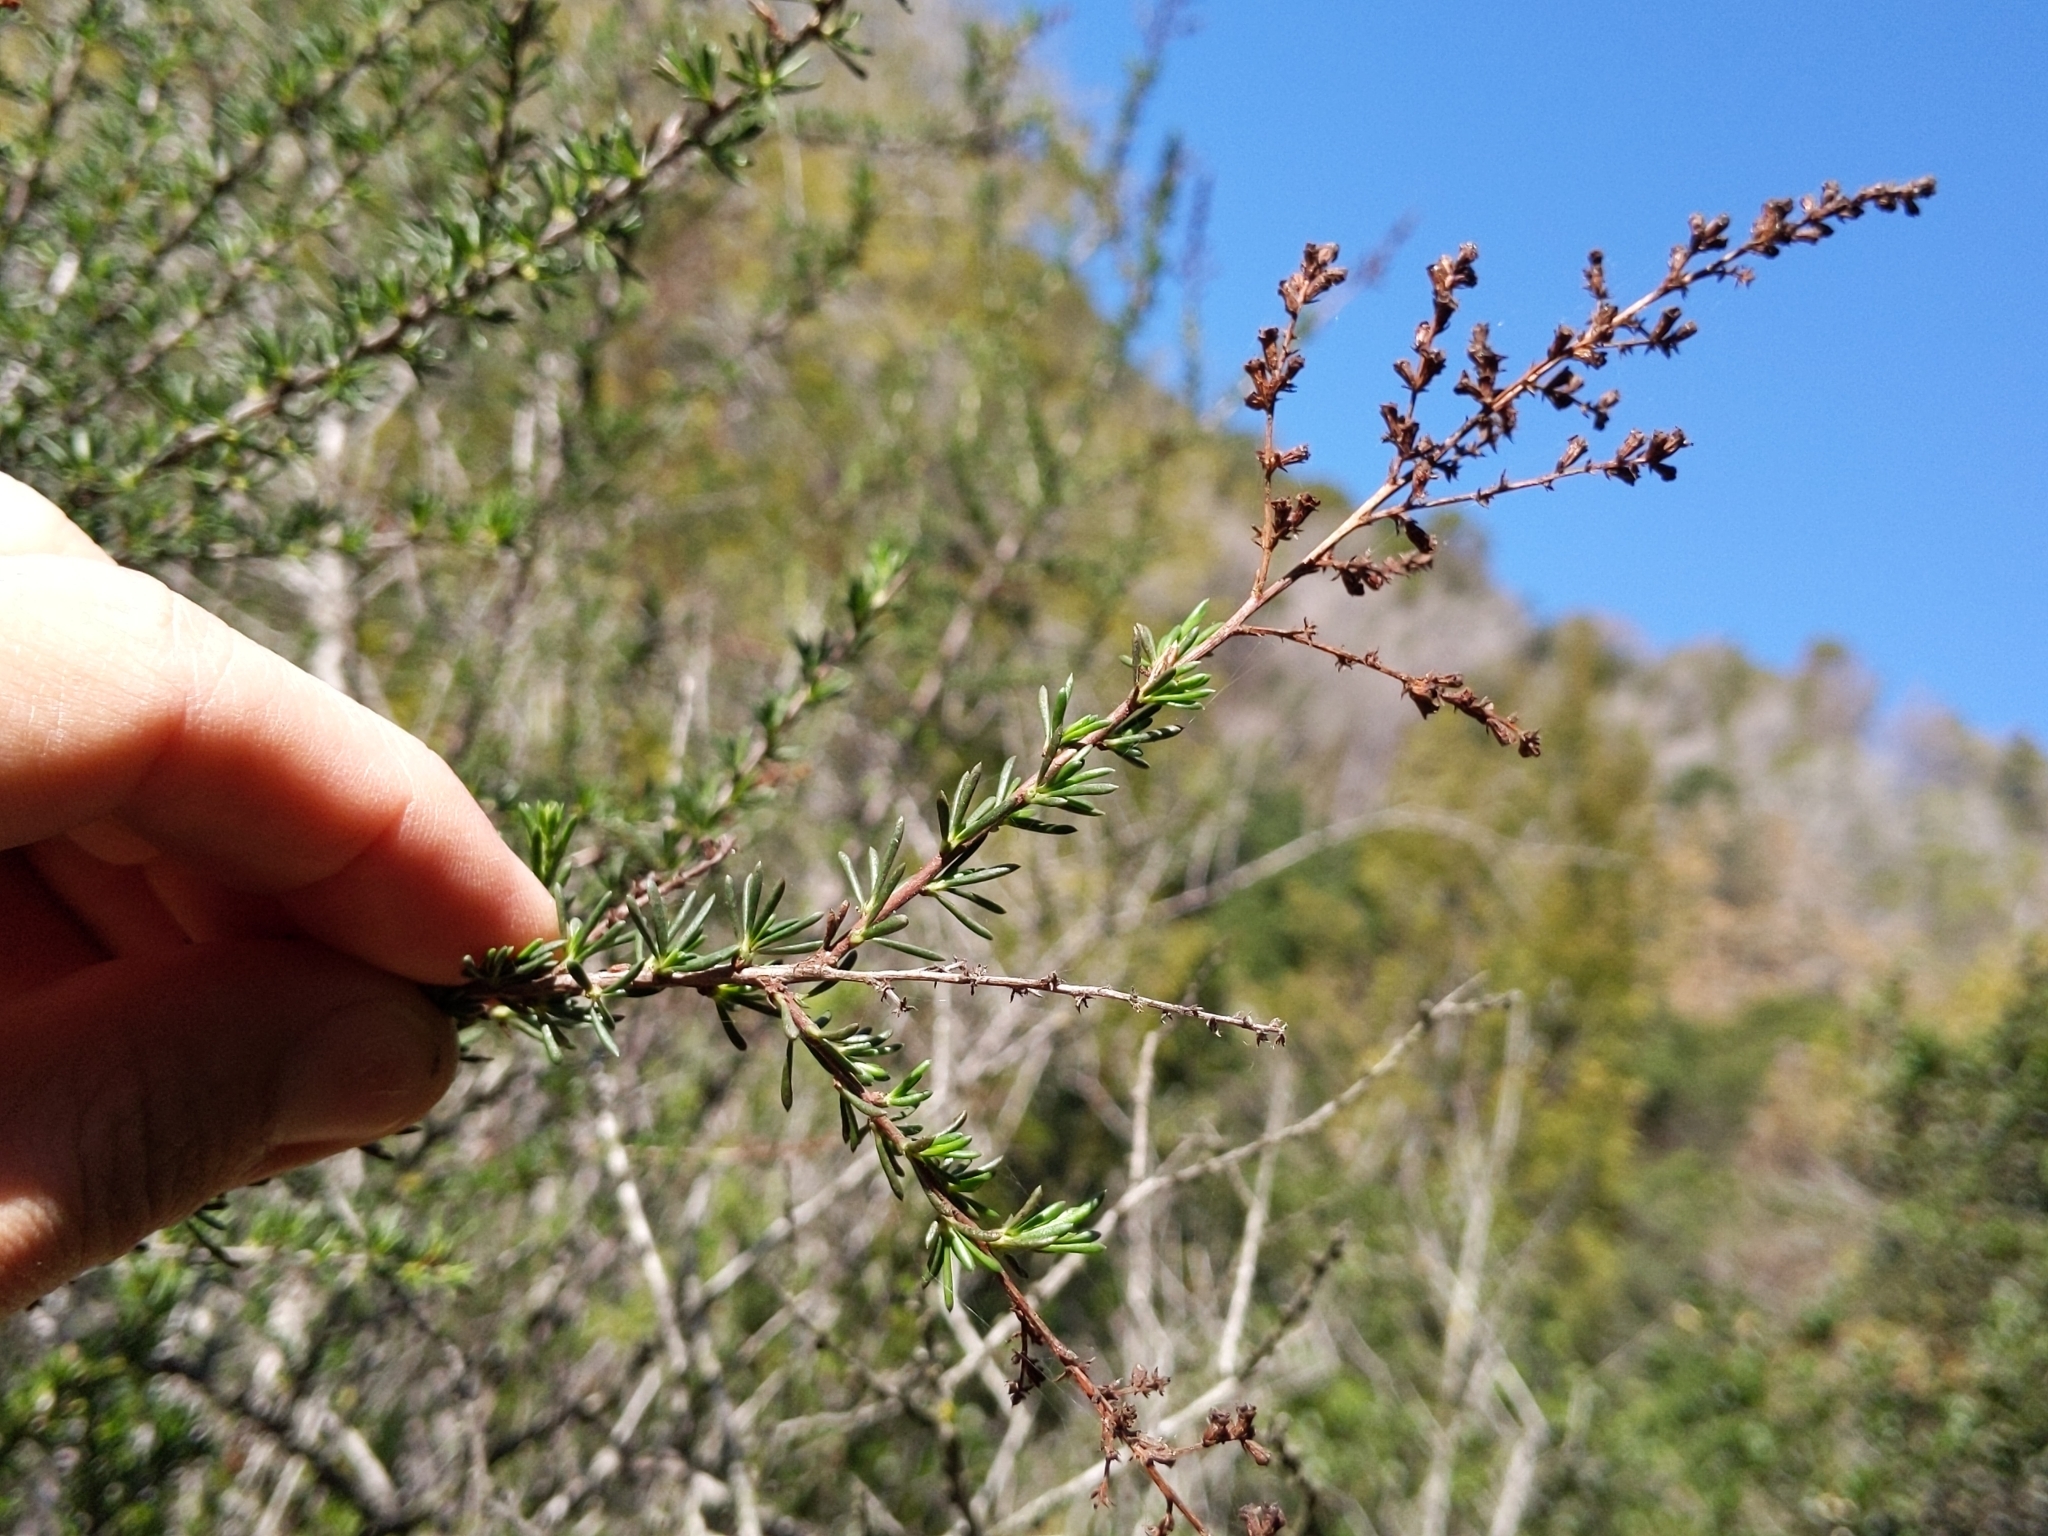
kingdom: Plantae
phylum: Tracheophyta
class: Magnoliopsida
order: Rosales
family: Rosaceae
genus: Adenostoma
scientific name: Adenostoma fasciculatum
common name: Chamise
